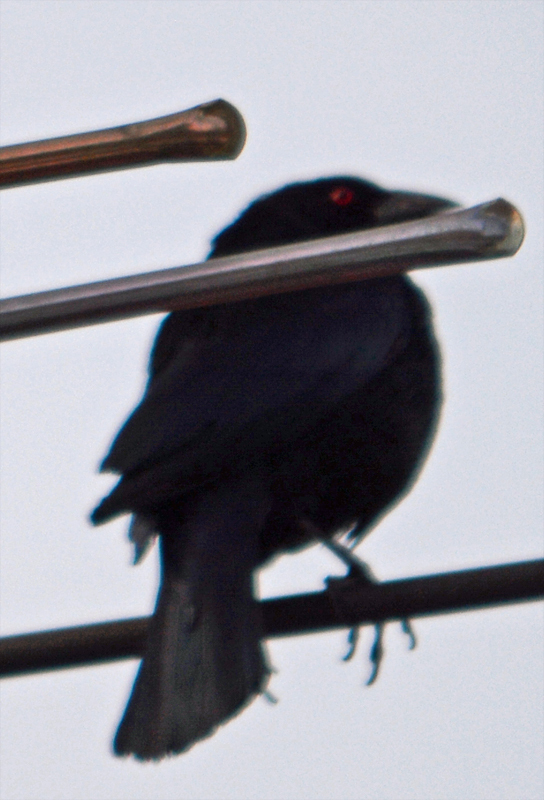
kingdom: Animalia
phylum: Chordata
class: Aves
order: Passeriformes
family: Icteridae
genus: Molothrus
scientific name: Molothrus aeneus
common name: Bronzed cowbird
